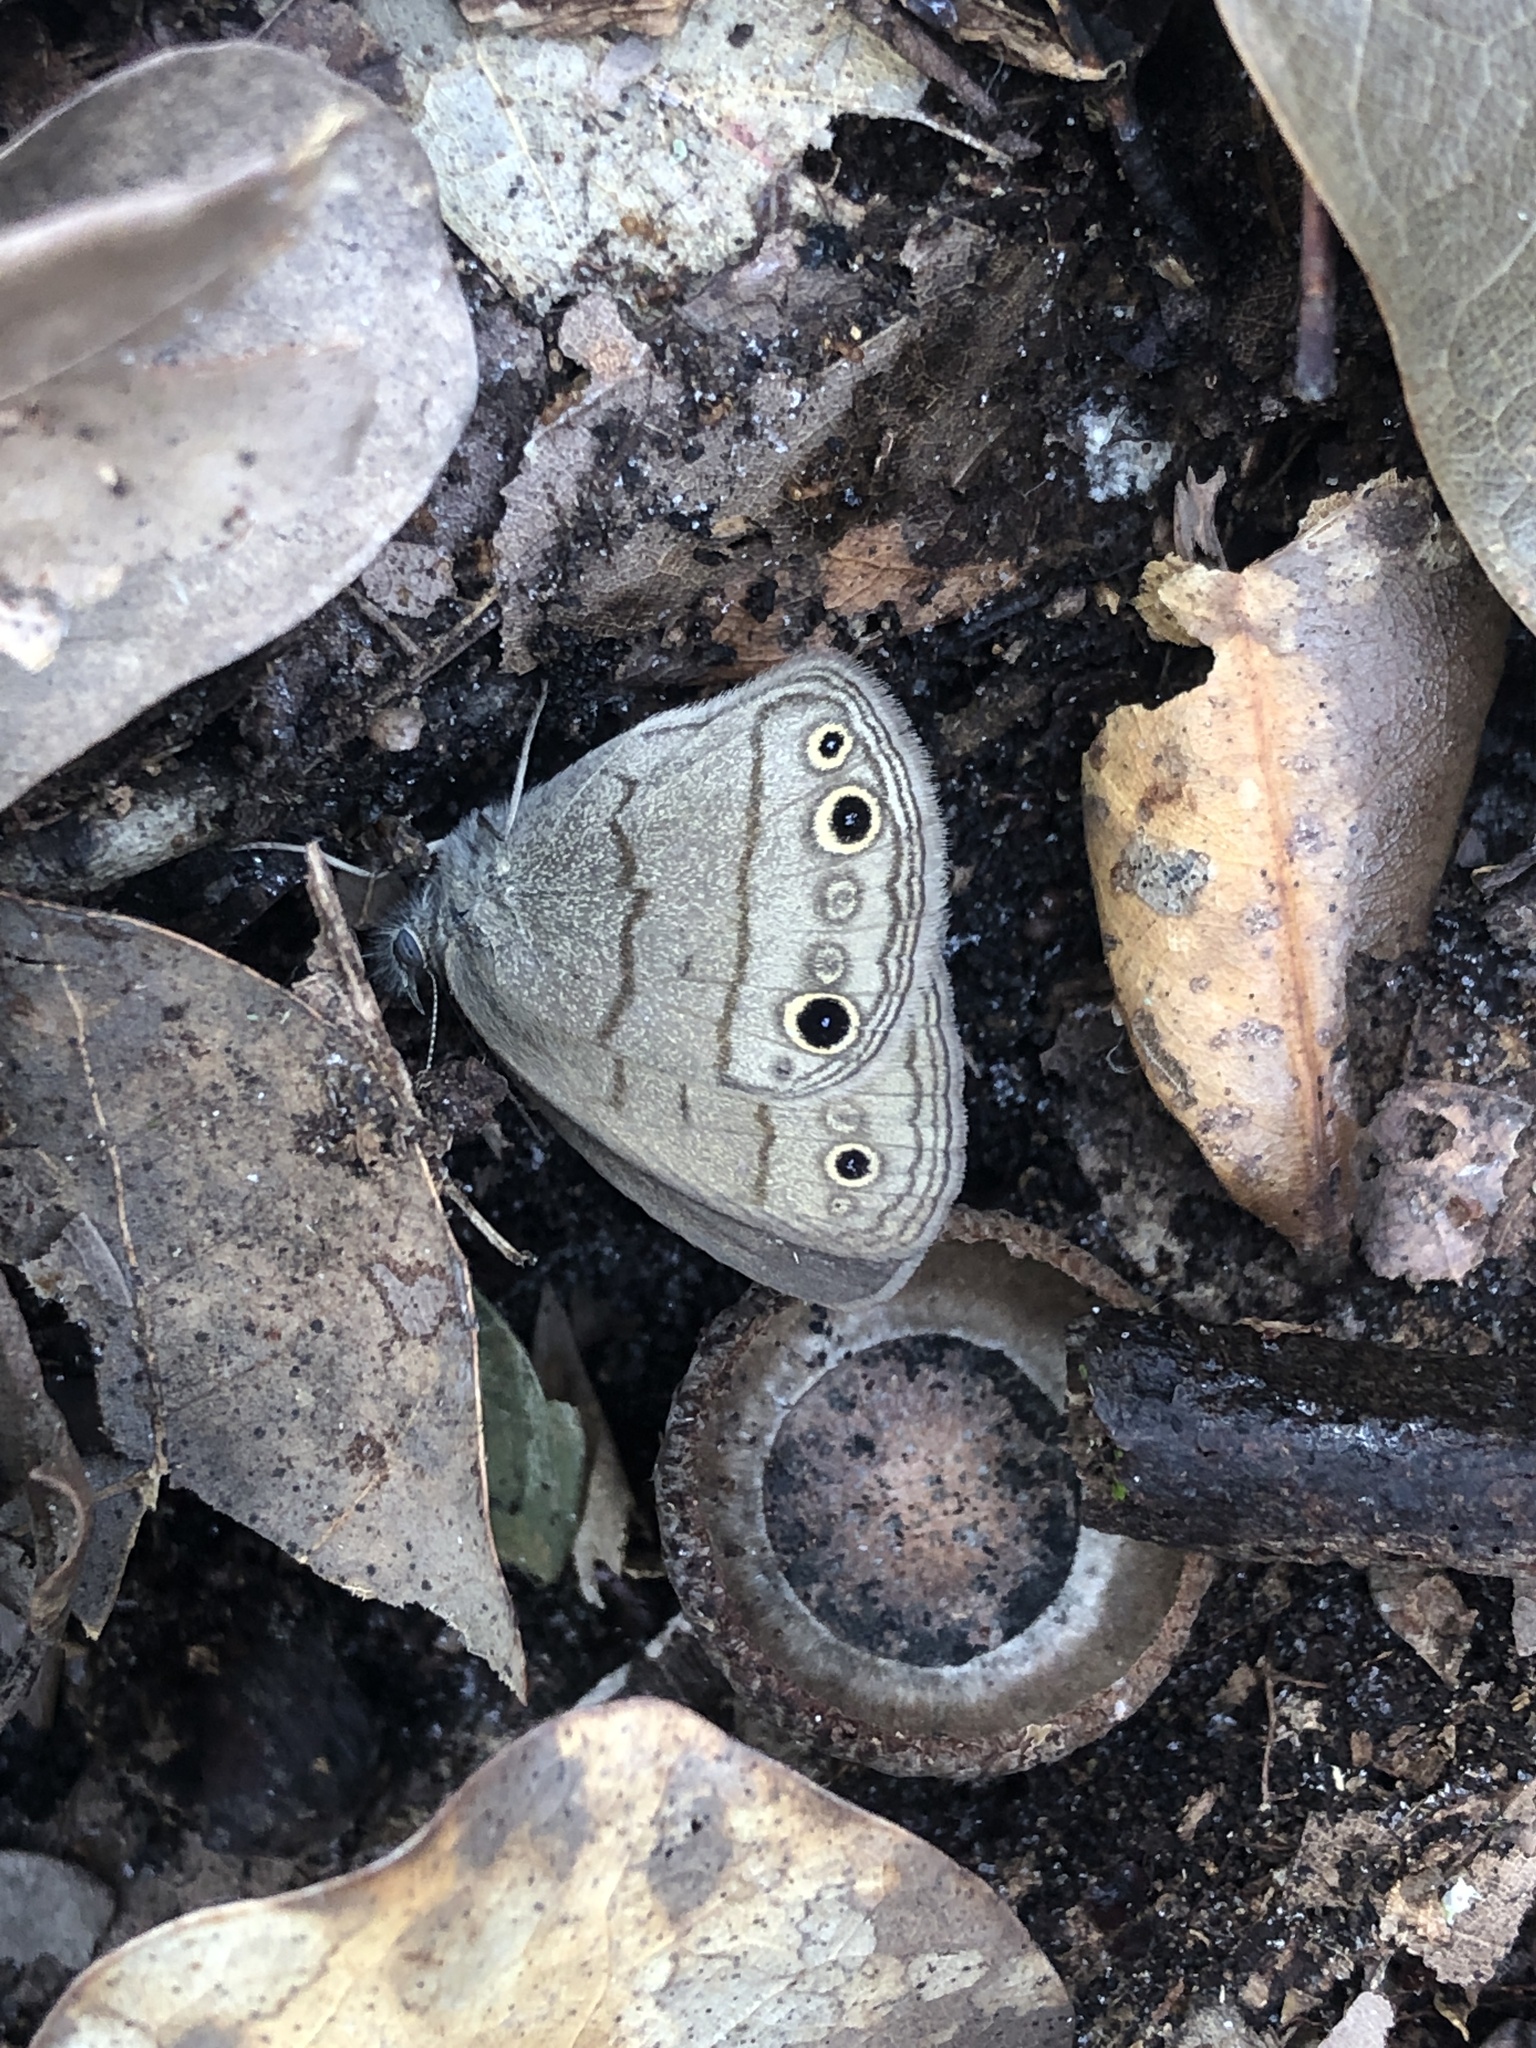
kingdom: Animalia
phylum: Arthropoda
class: Insecta
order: Lepidoptera
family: Nymphalidae
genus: Hermeuptychia
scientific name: Hermeuptychia hermes
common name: Hermes satyr
